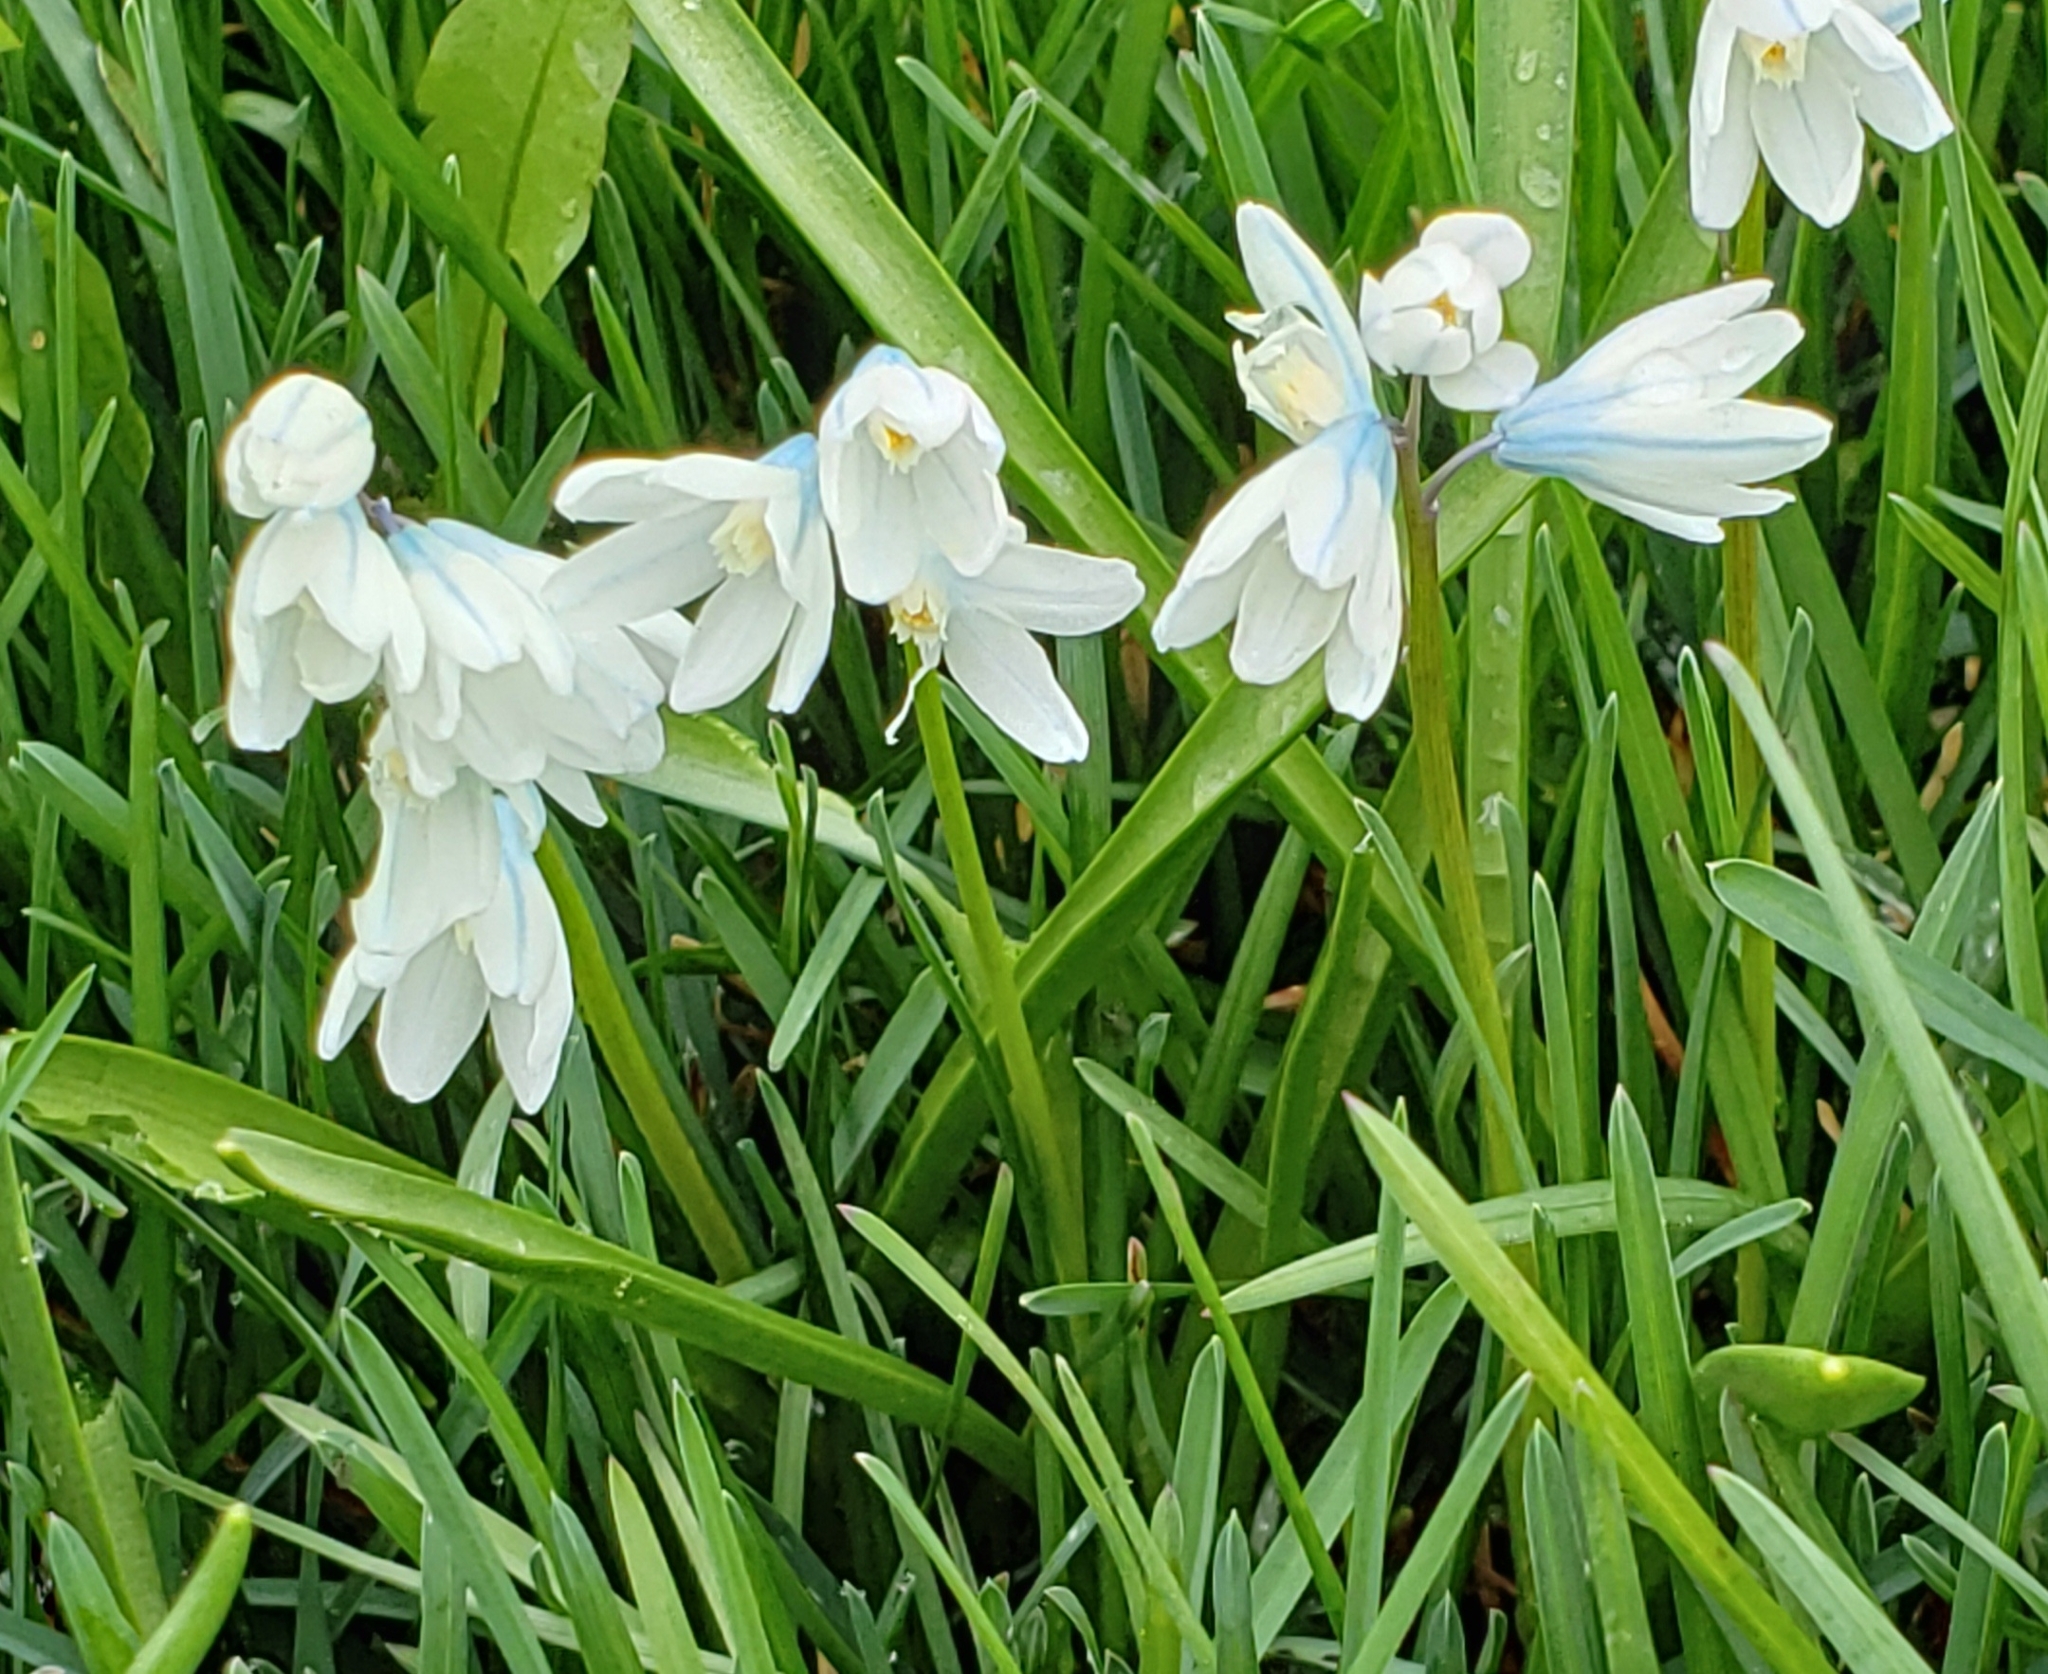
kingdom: Plantae
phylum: Tracheophyta
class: Liliopsida
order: Asparagales
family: Asparagaceae
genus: Puschkinia
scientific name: Puschkinia scilloides
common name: Striped squill
